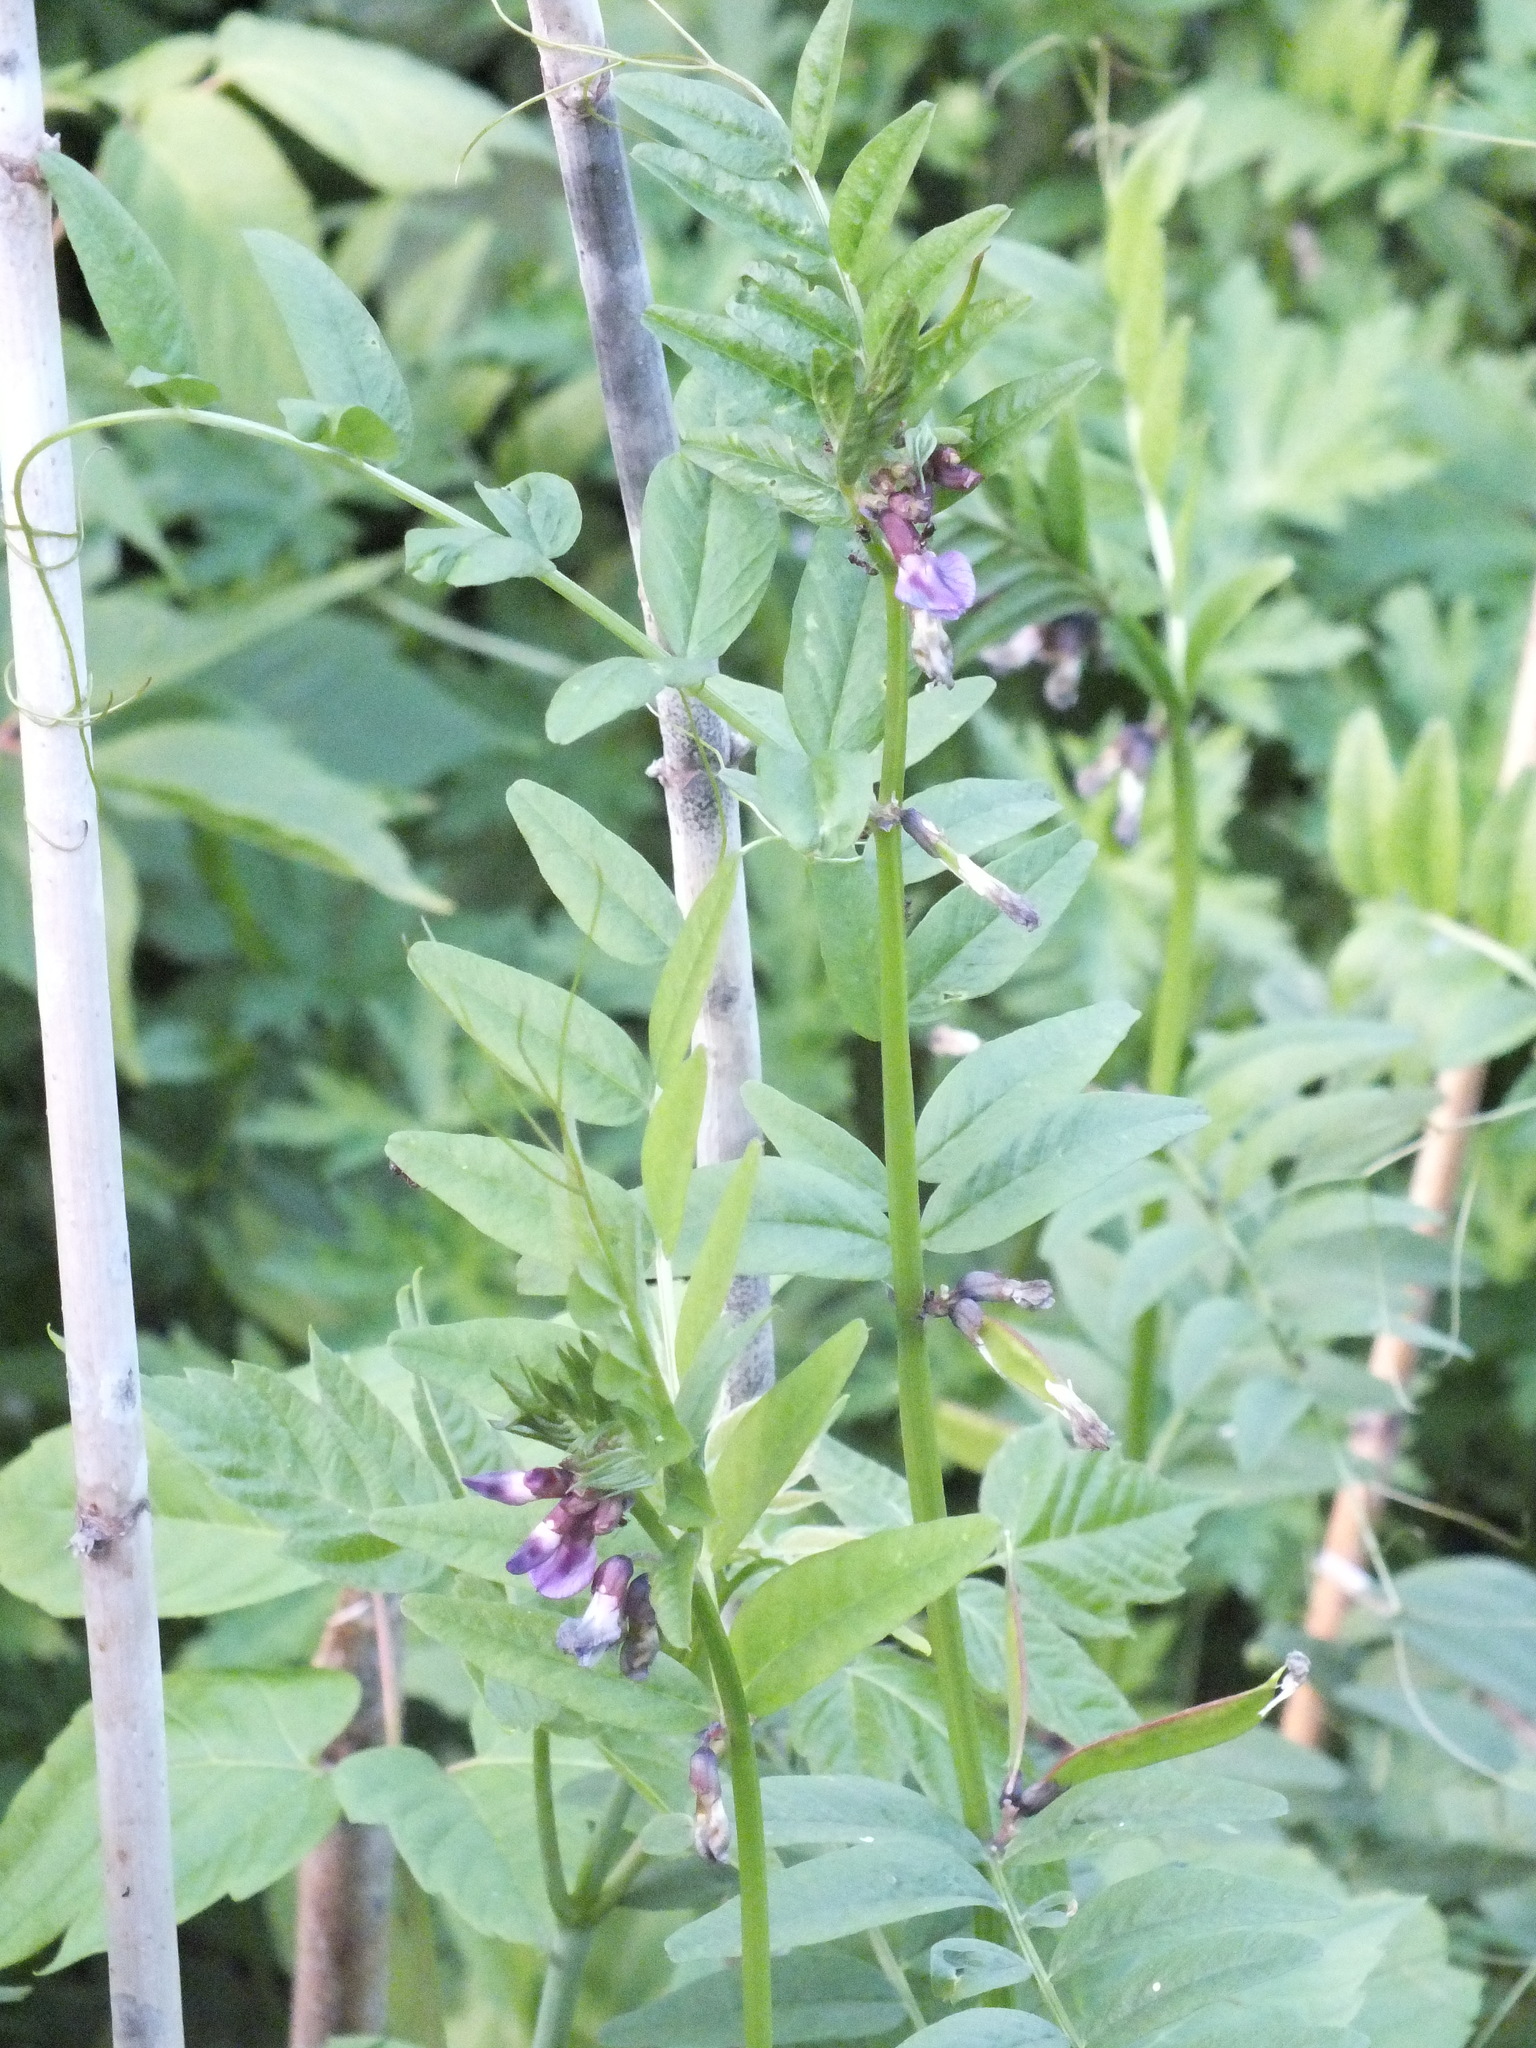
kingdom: Plantae
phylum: Tracheophyta
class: Magnoliopsida
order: Fabales
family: Fabaceae
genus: Vicia
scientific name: Vicia sepium
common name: Bush vetch
